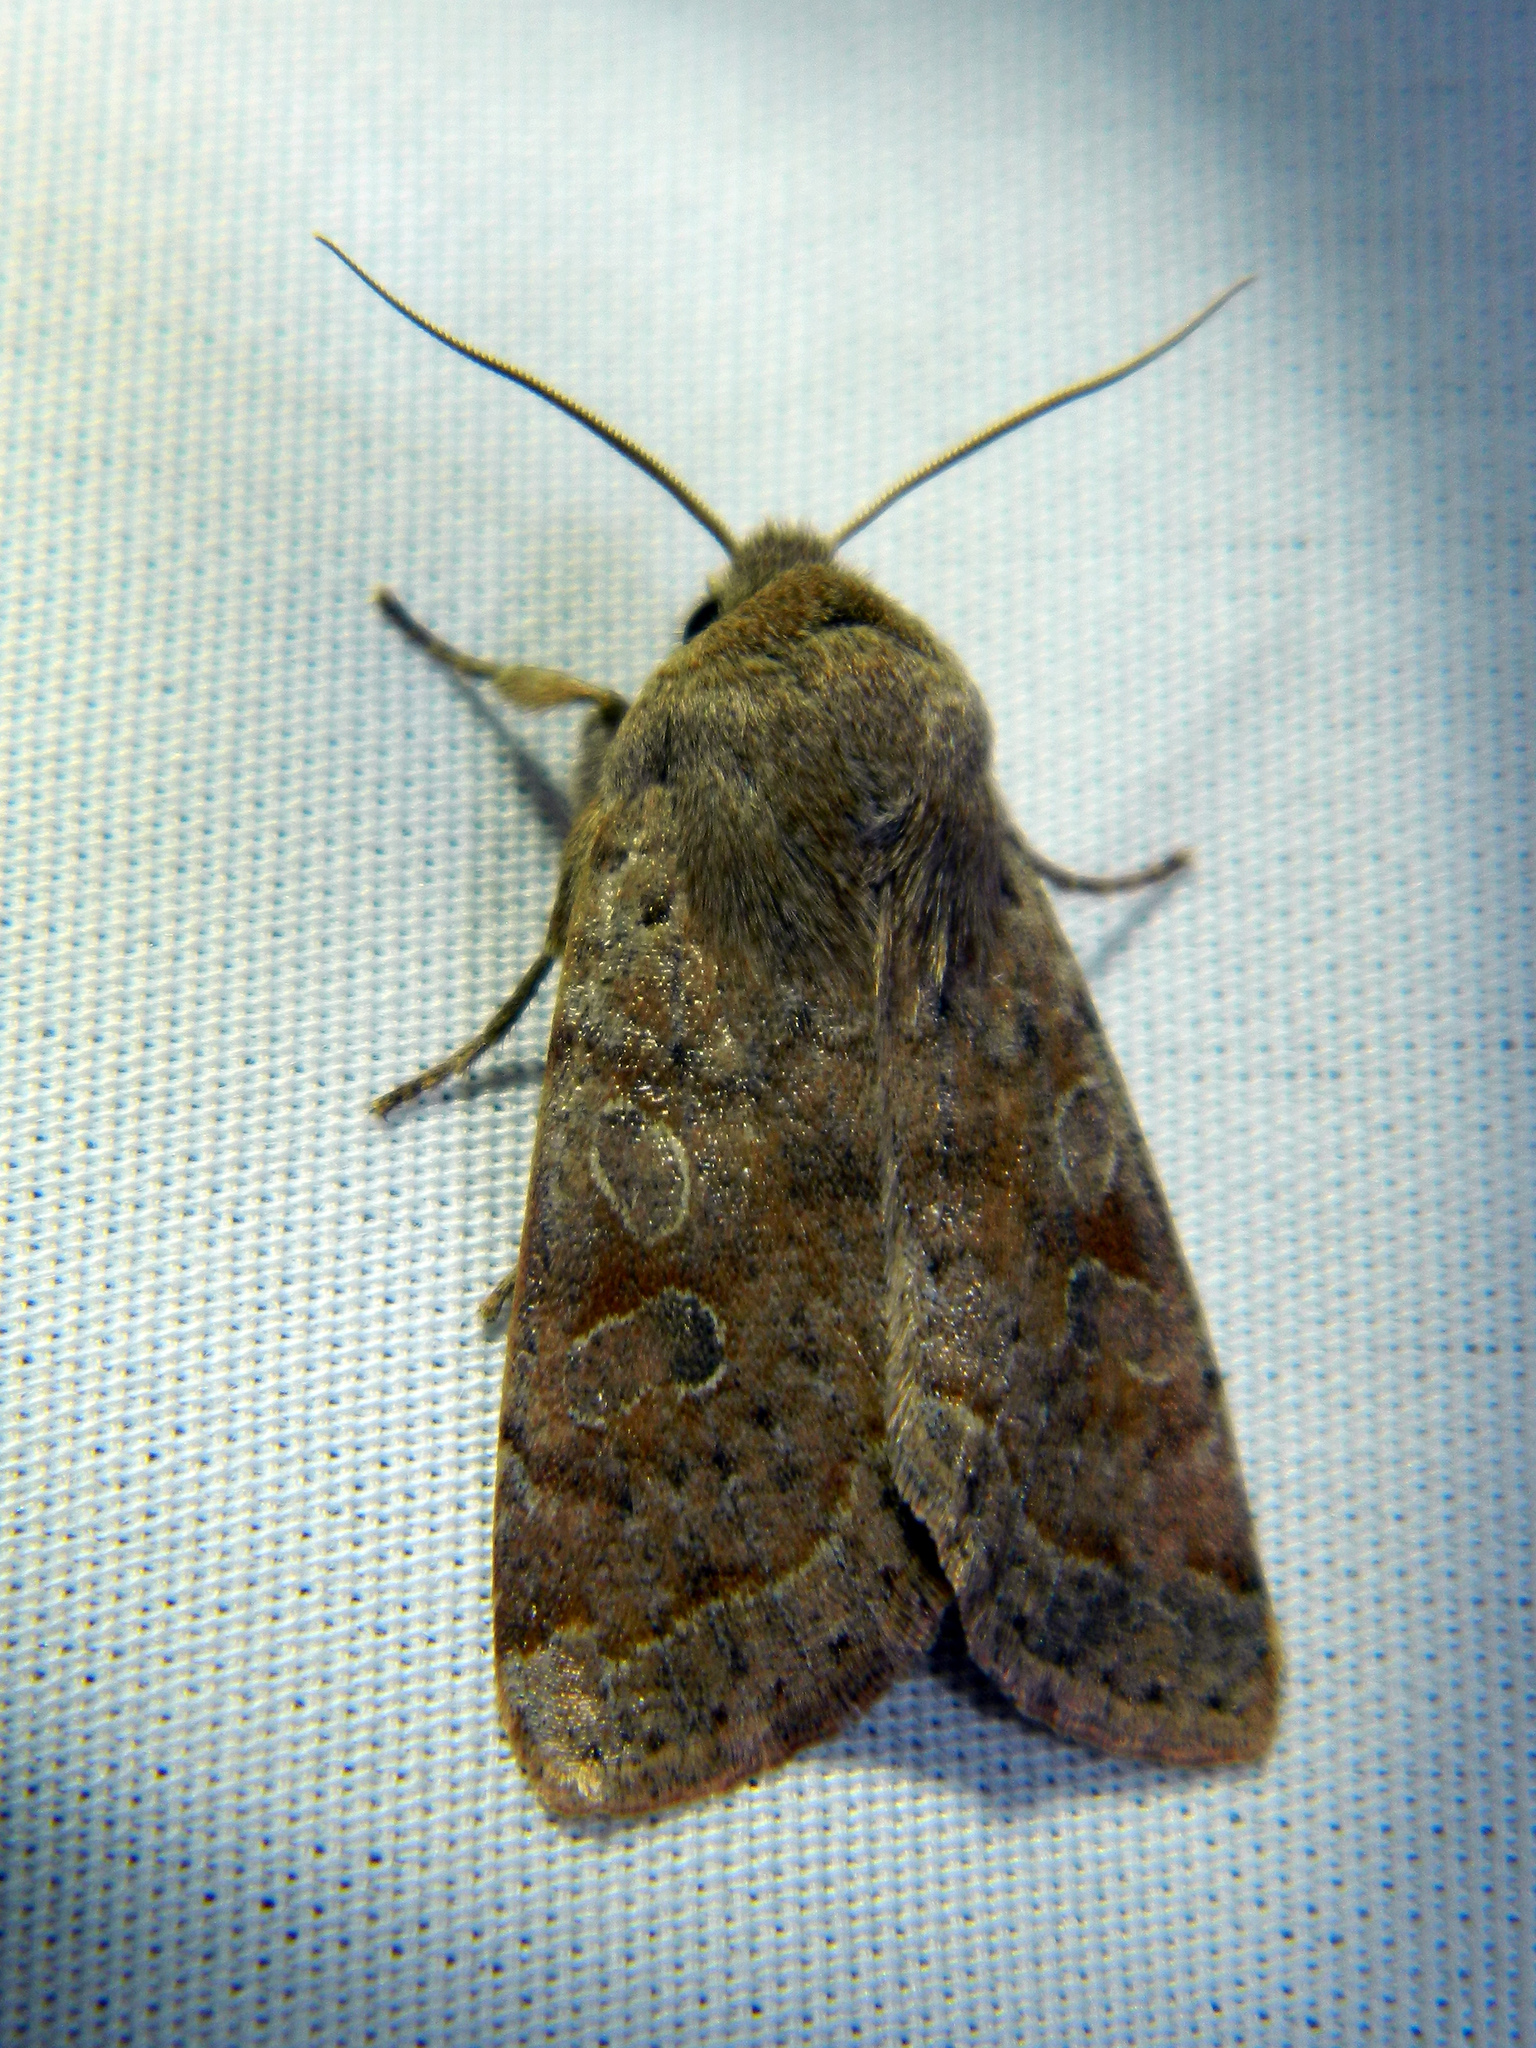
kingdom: Animalia
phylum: Arthropoda
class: Insecta
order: Lepidoptera
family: Noctuidae
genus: Orthosia
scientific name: Orthosia hibisci
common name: Green fruitworm
